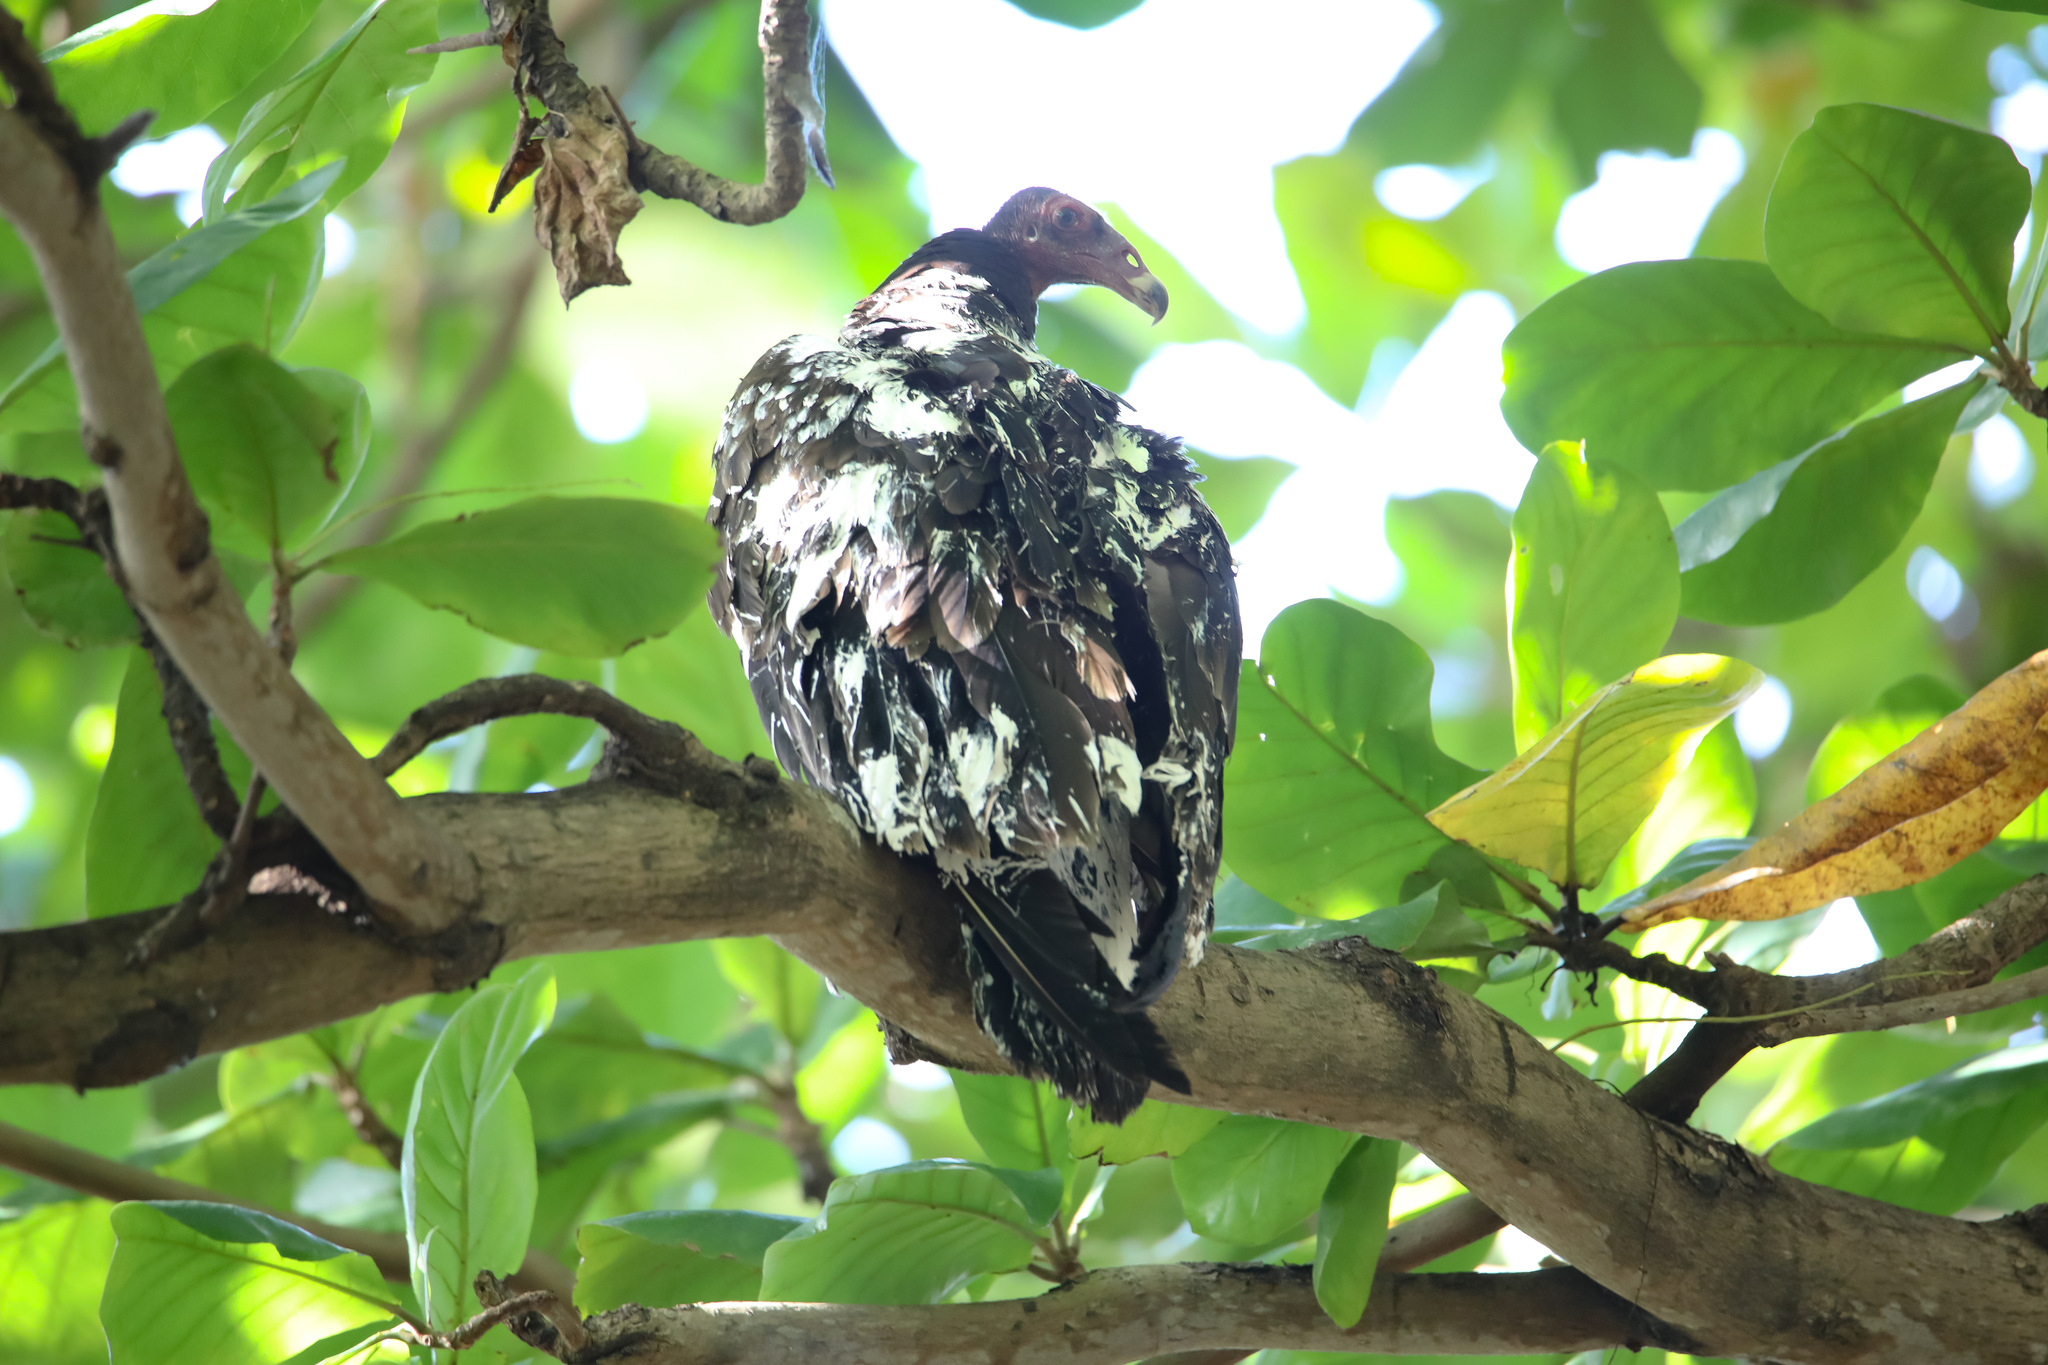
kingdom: Animalia
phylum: Chordata
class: Aves
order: Accipitriformes
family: Cathartidae
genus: Cathartes
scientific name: Cathartes aura
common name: Turkey vulture
